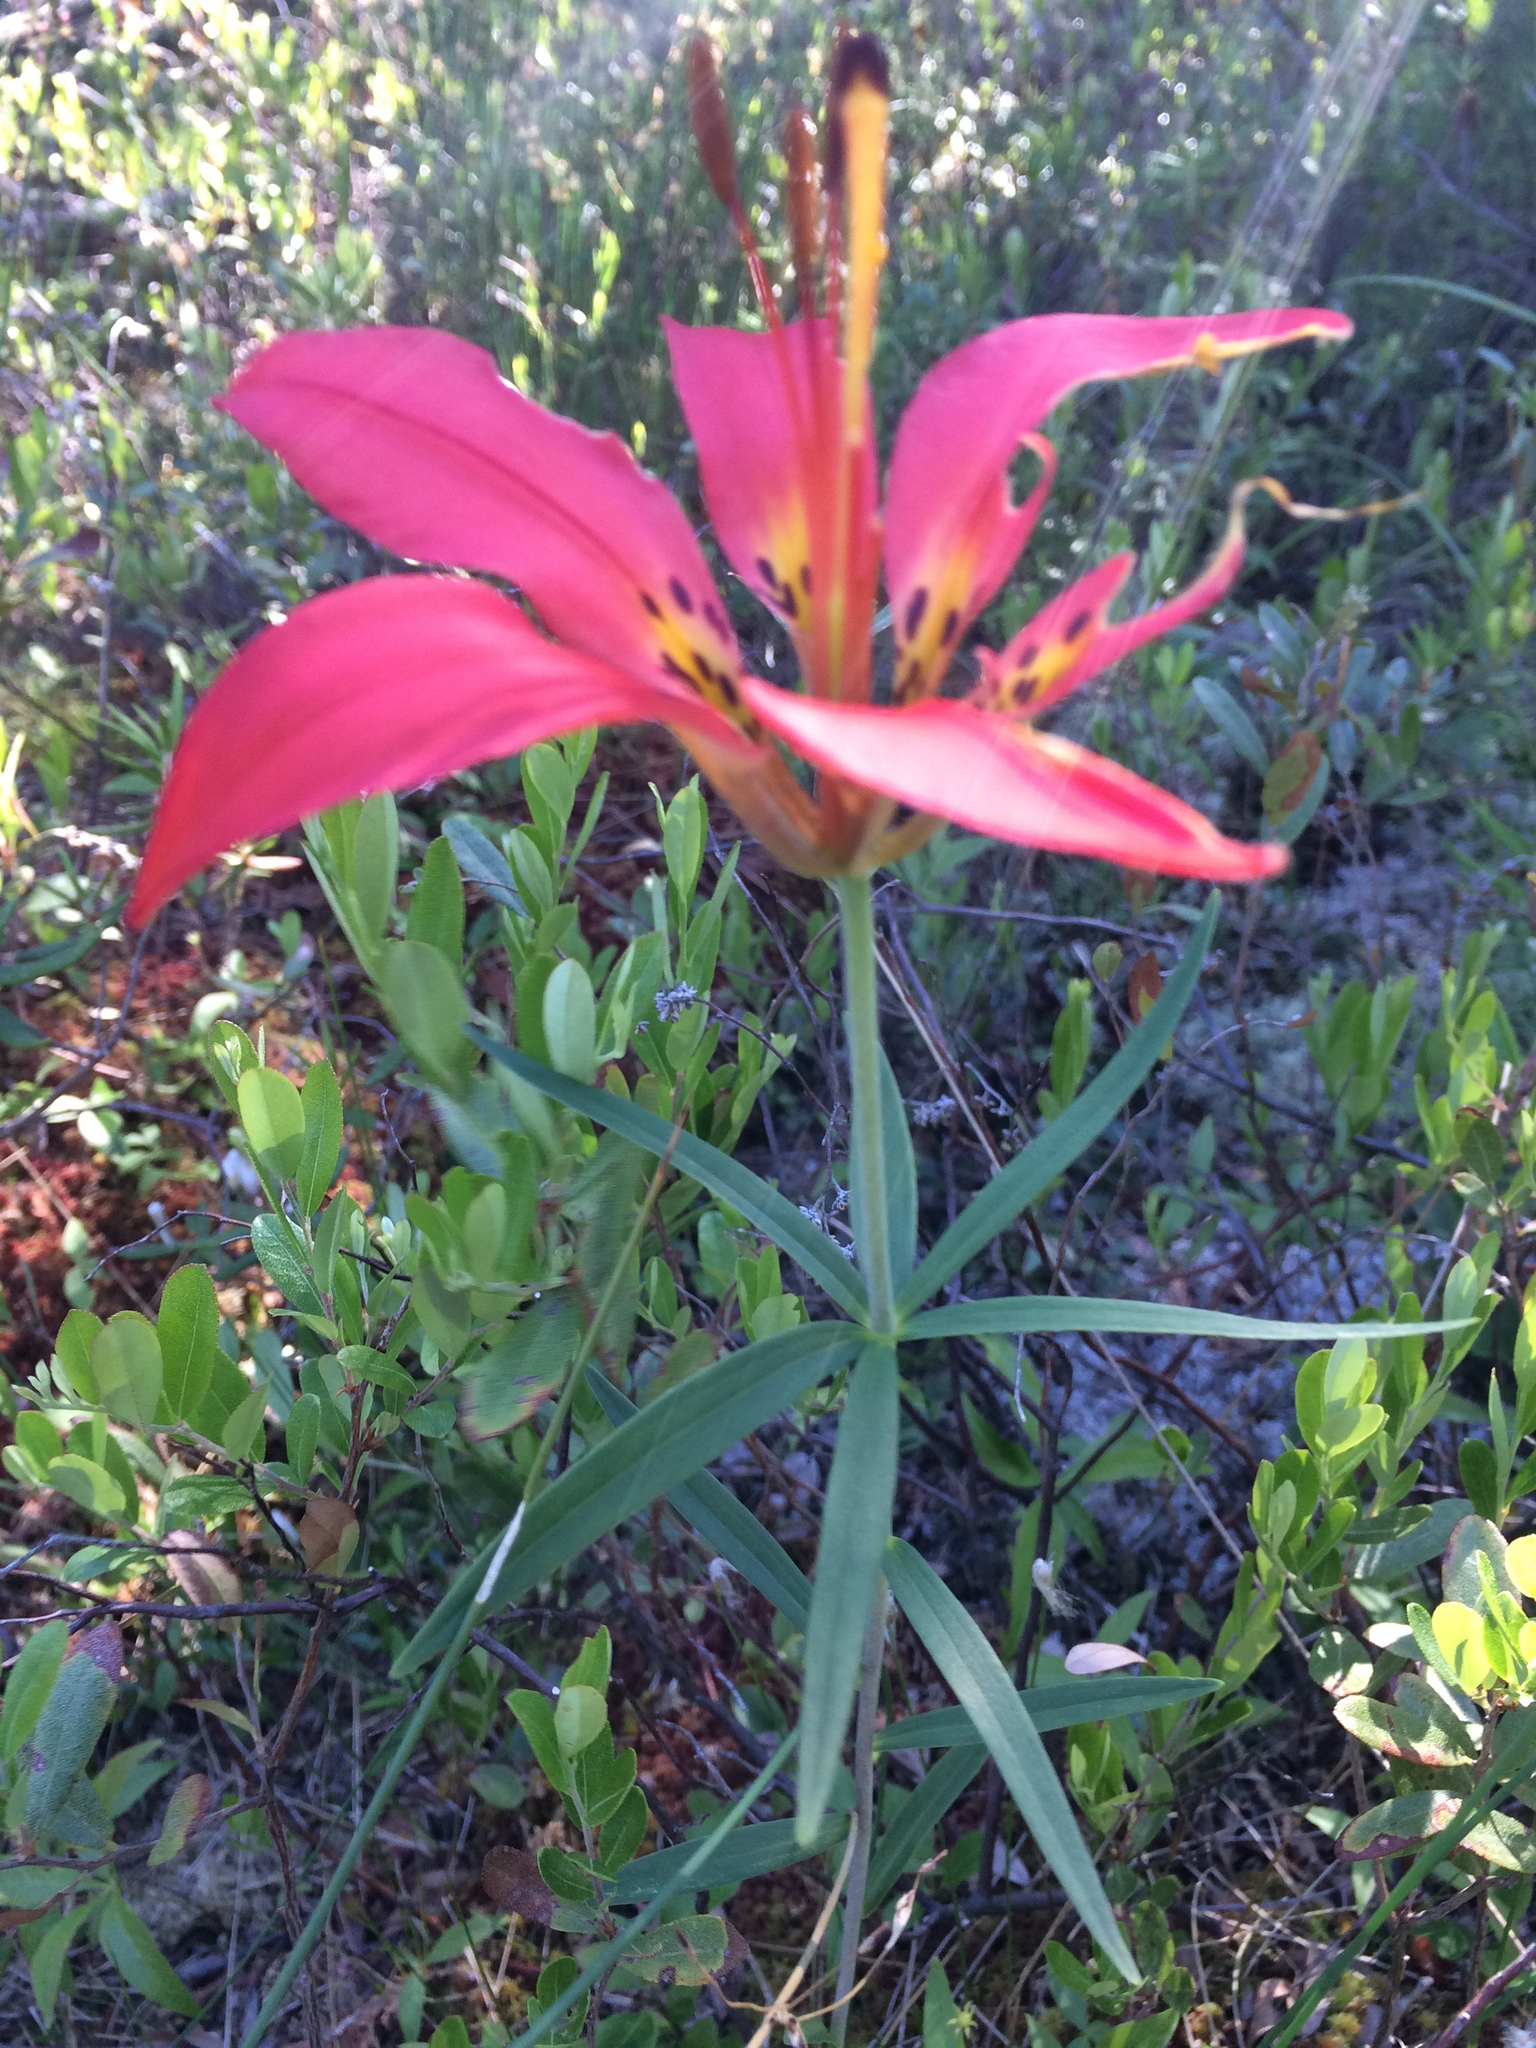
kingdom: Plantae
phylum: Tracheophyta
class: Liliopsida
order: Liliales
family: Liliaceae
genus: Lilium
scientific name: Lilium philadelphicum
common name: Red lily
